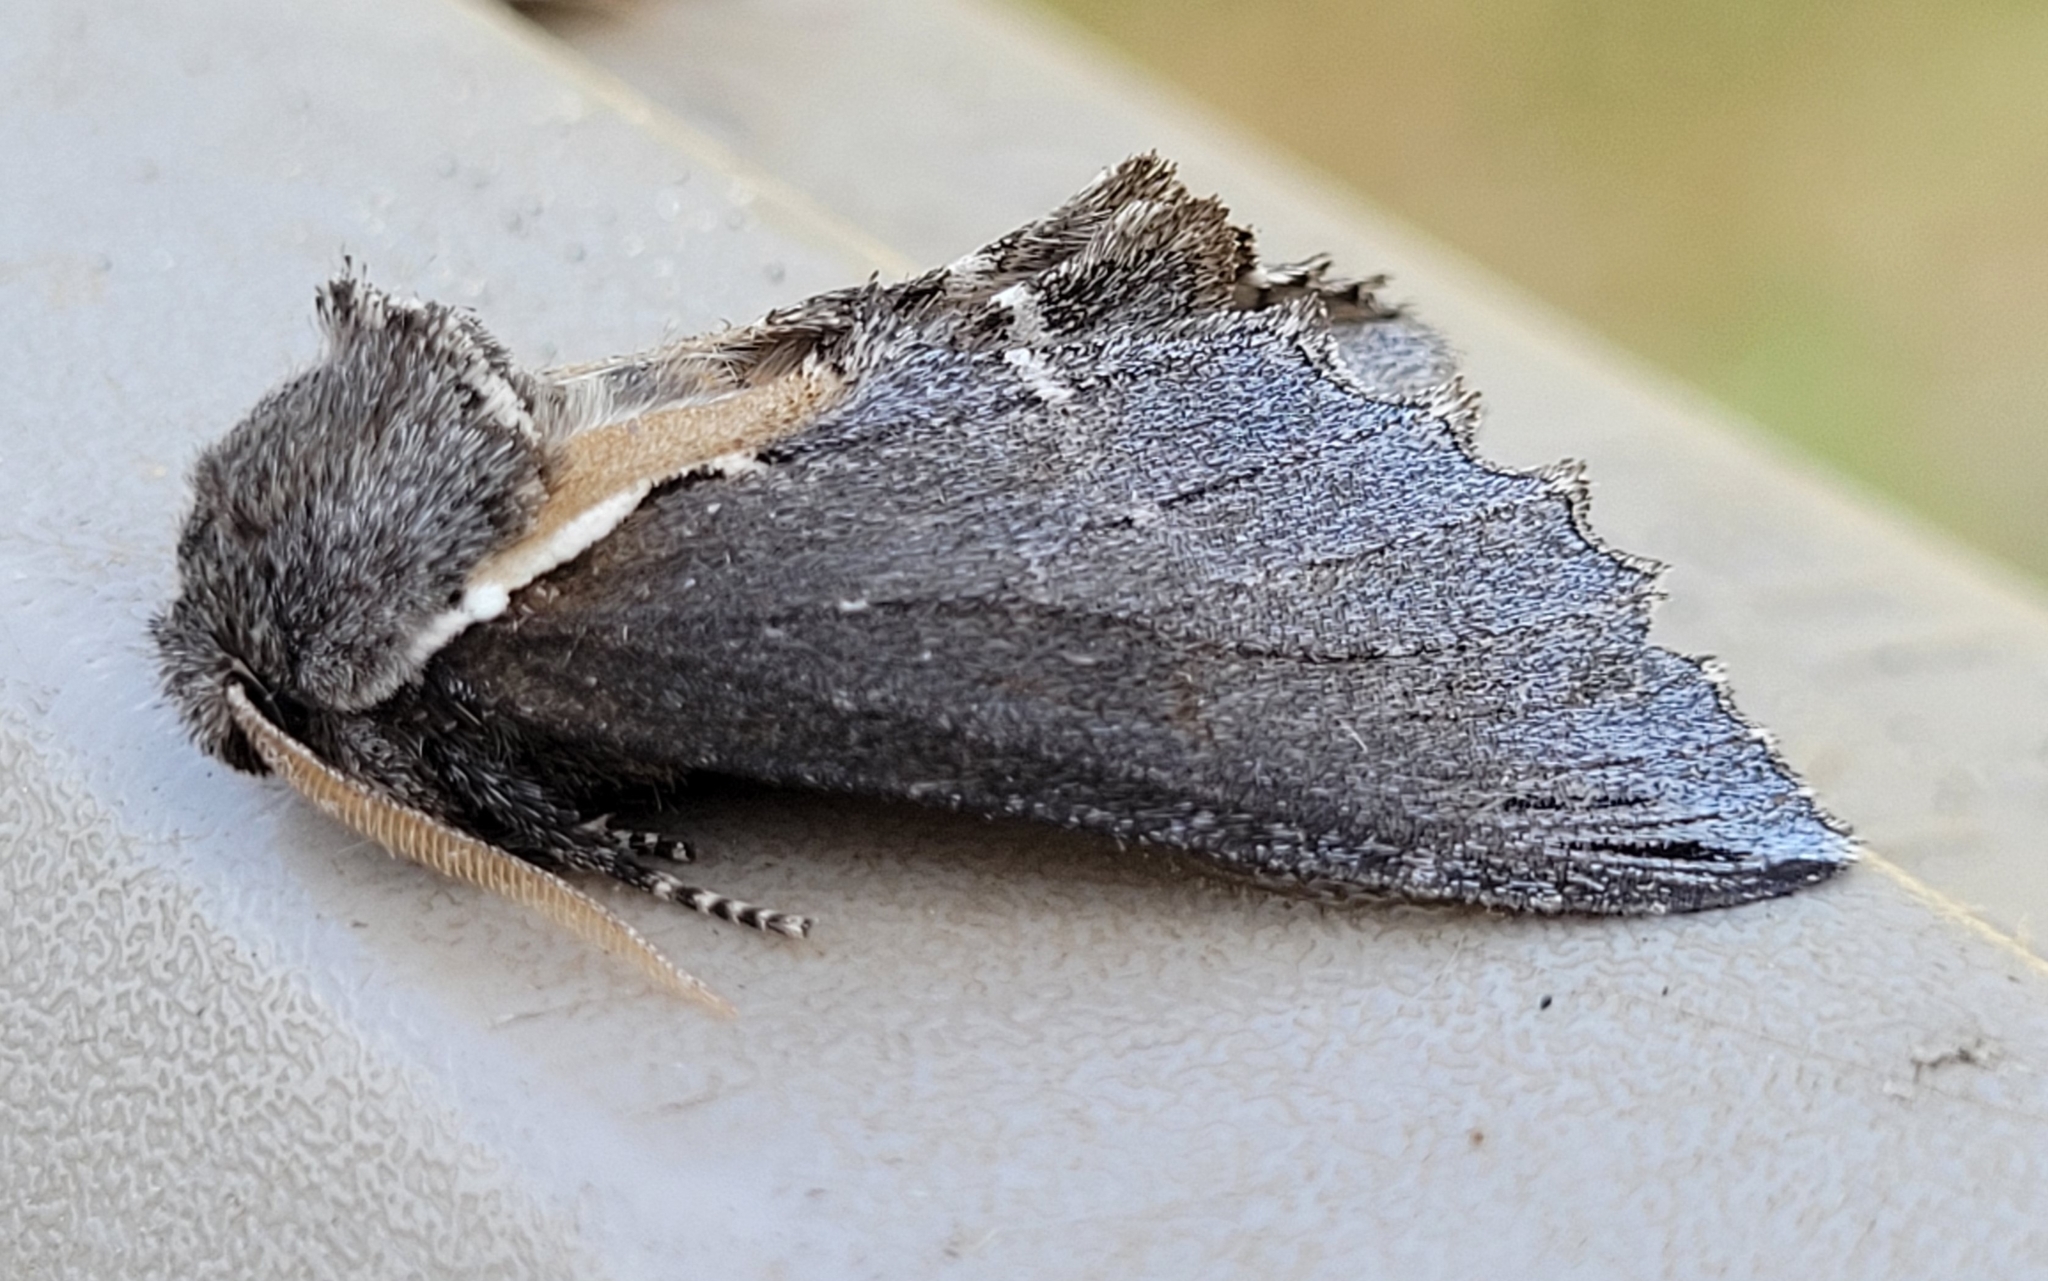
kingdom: Animalia
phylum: Arthropoda
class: Insecta
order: Lepidoptera
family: Notodontidae
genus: Pheosidea
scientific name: Pheosidea elegans
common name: Elegant prominent
